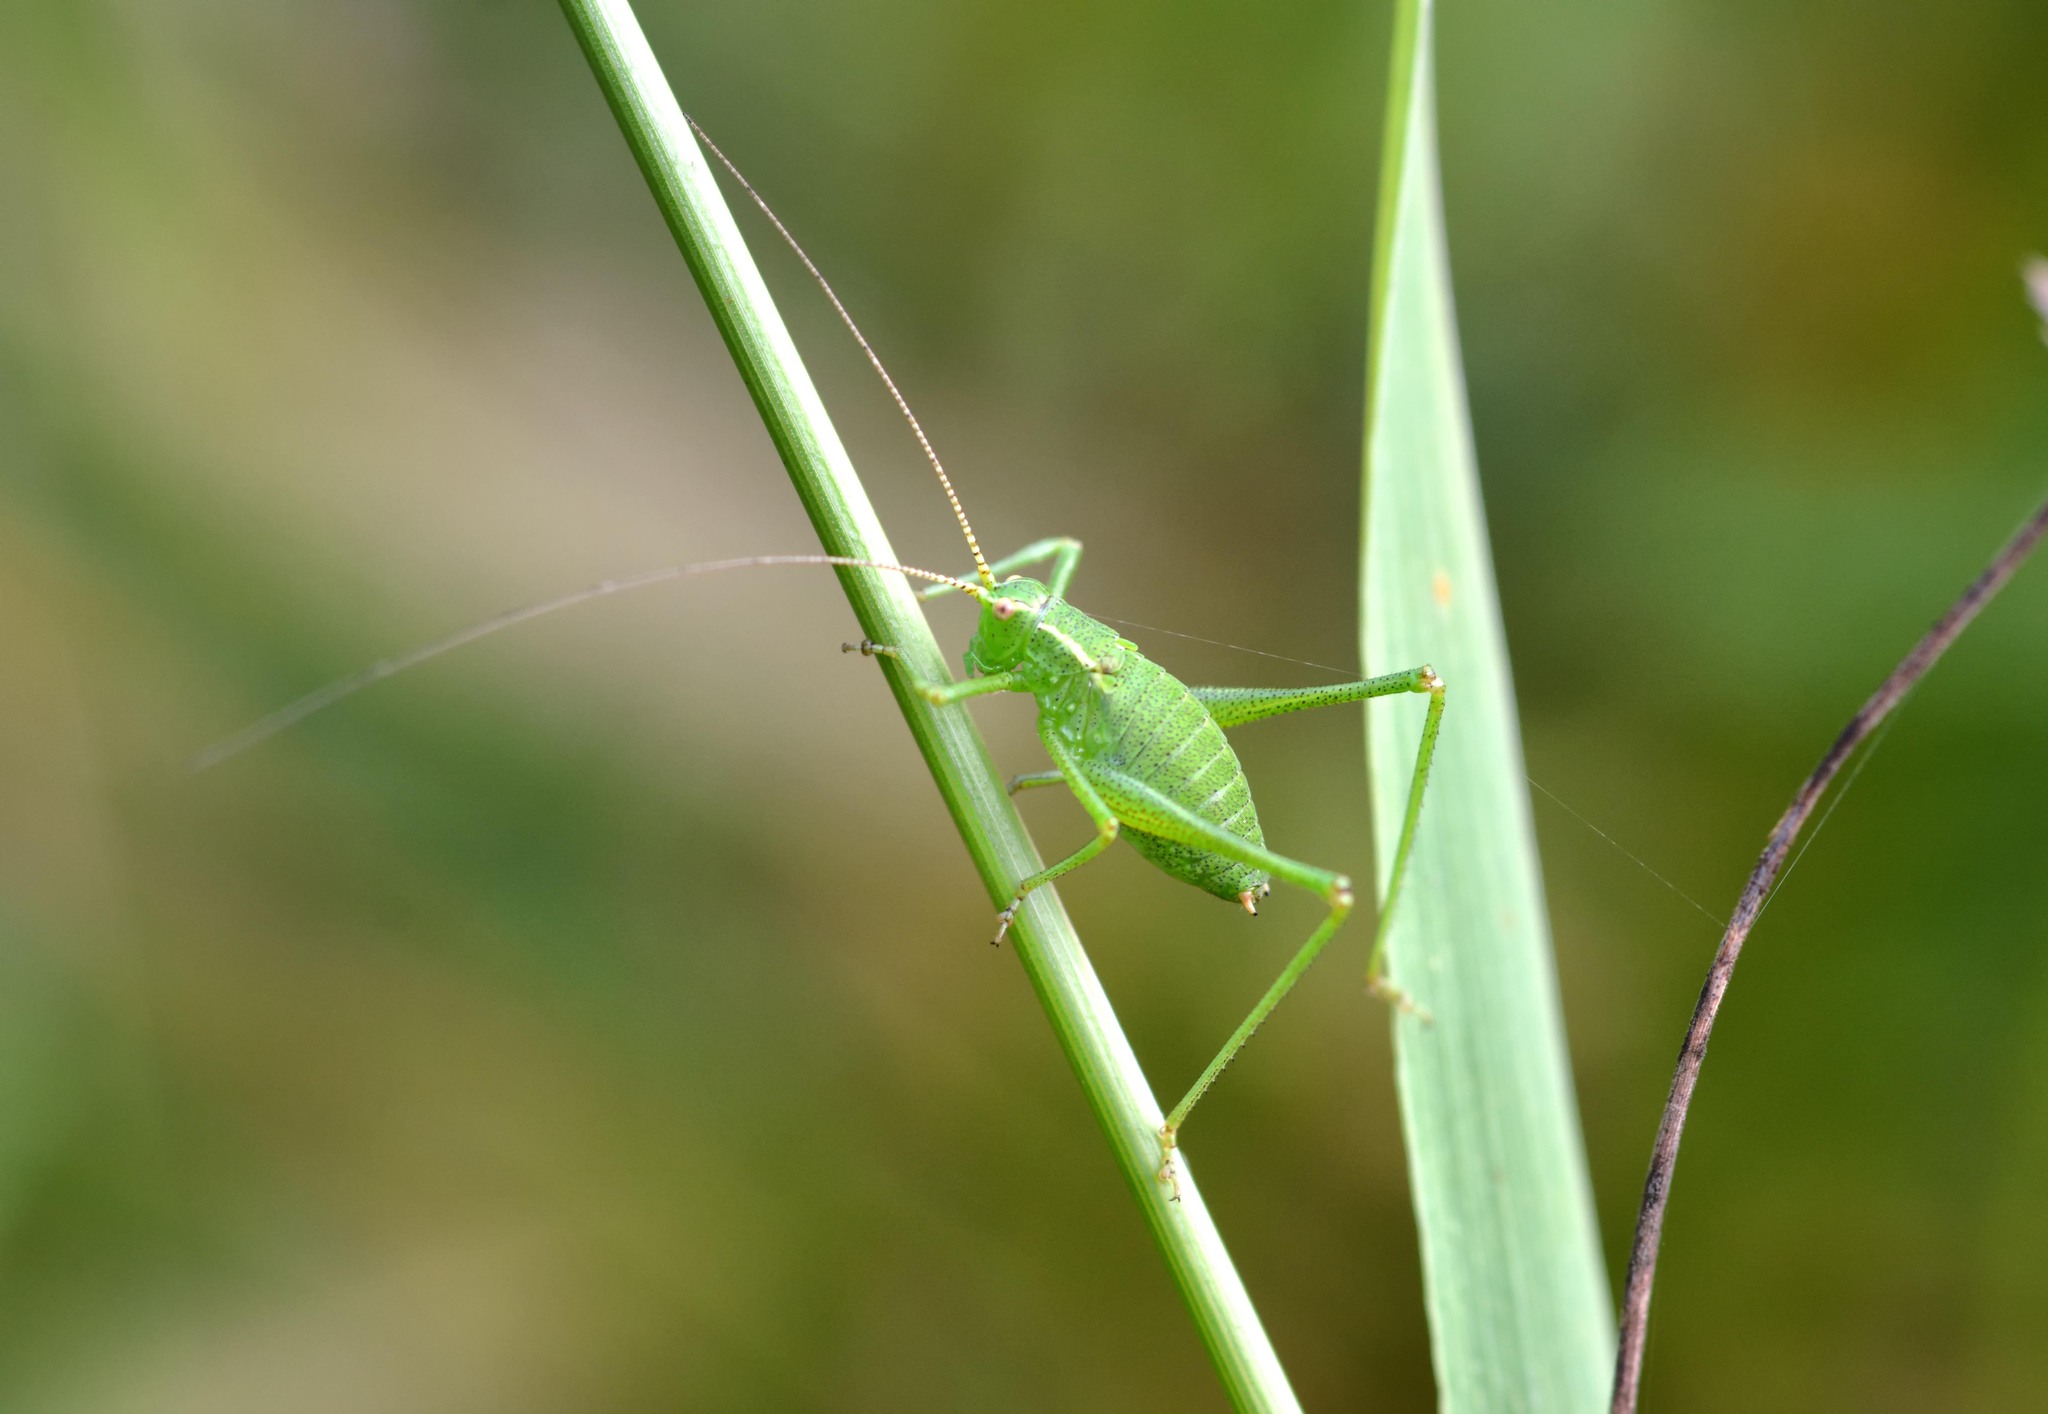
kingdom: Animalia
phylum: Arthropoda
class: Insecta
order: Orthoptera
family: Tettigoniidae
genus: Leptophyes
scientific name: Leptophyes punctatissima
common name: Speckled bush-cricket
